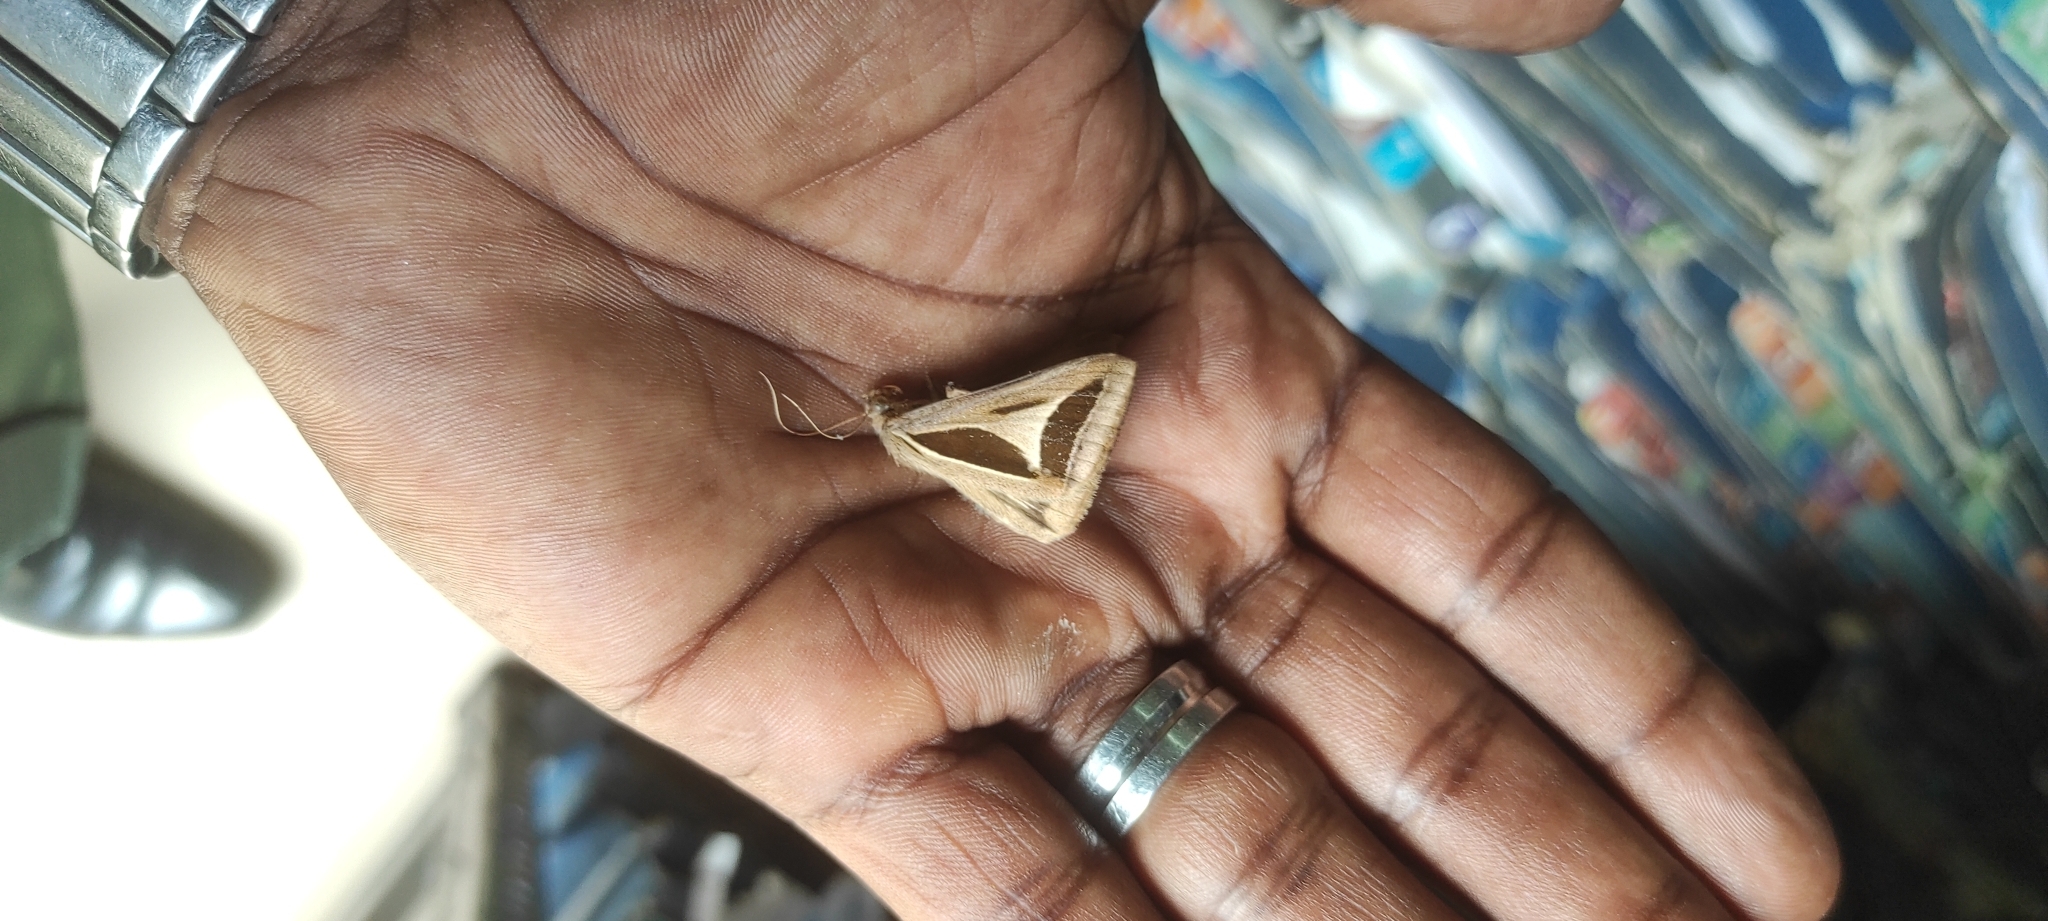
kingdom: Animalia
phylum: Arthropoda
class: Insecta
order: Lepidoptera
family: Erebidae
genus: Trigonodes
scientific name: Trigonodes cephise
